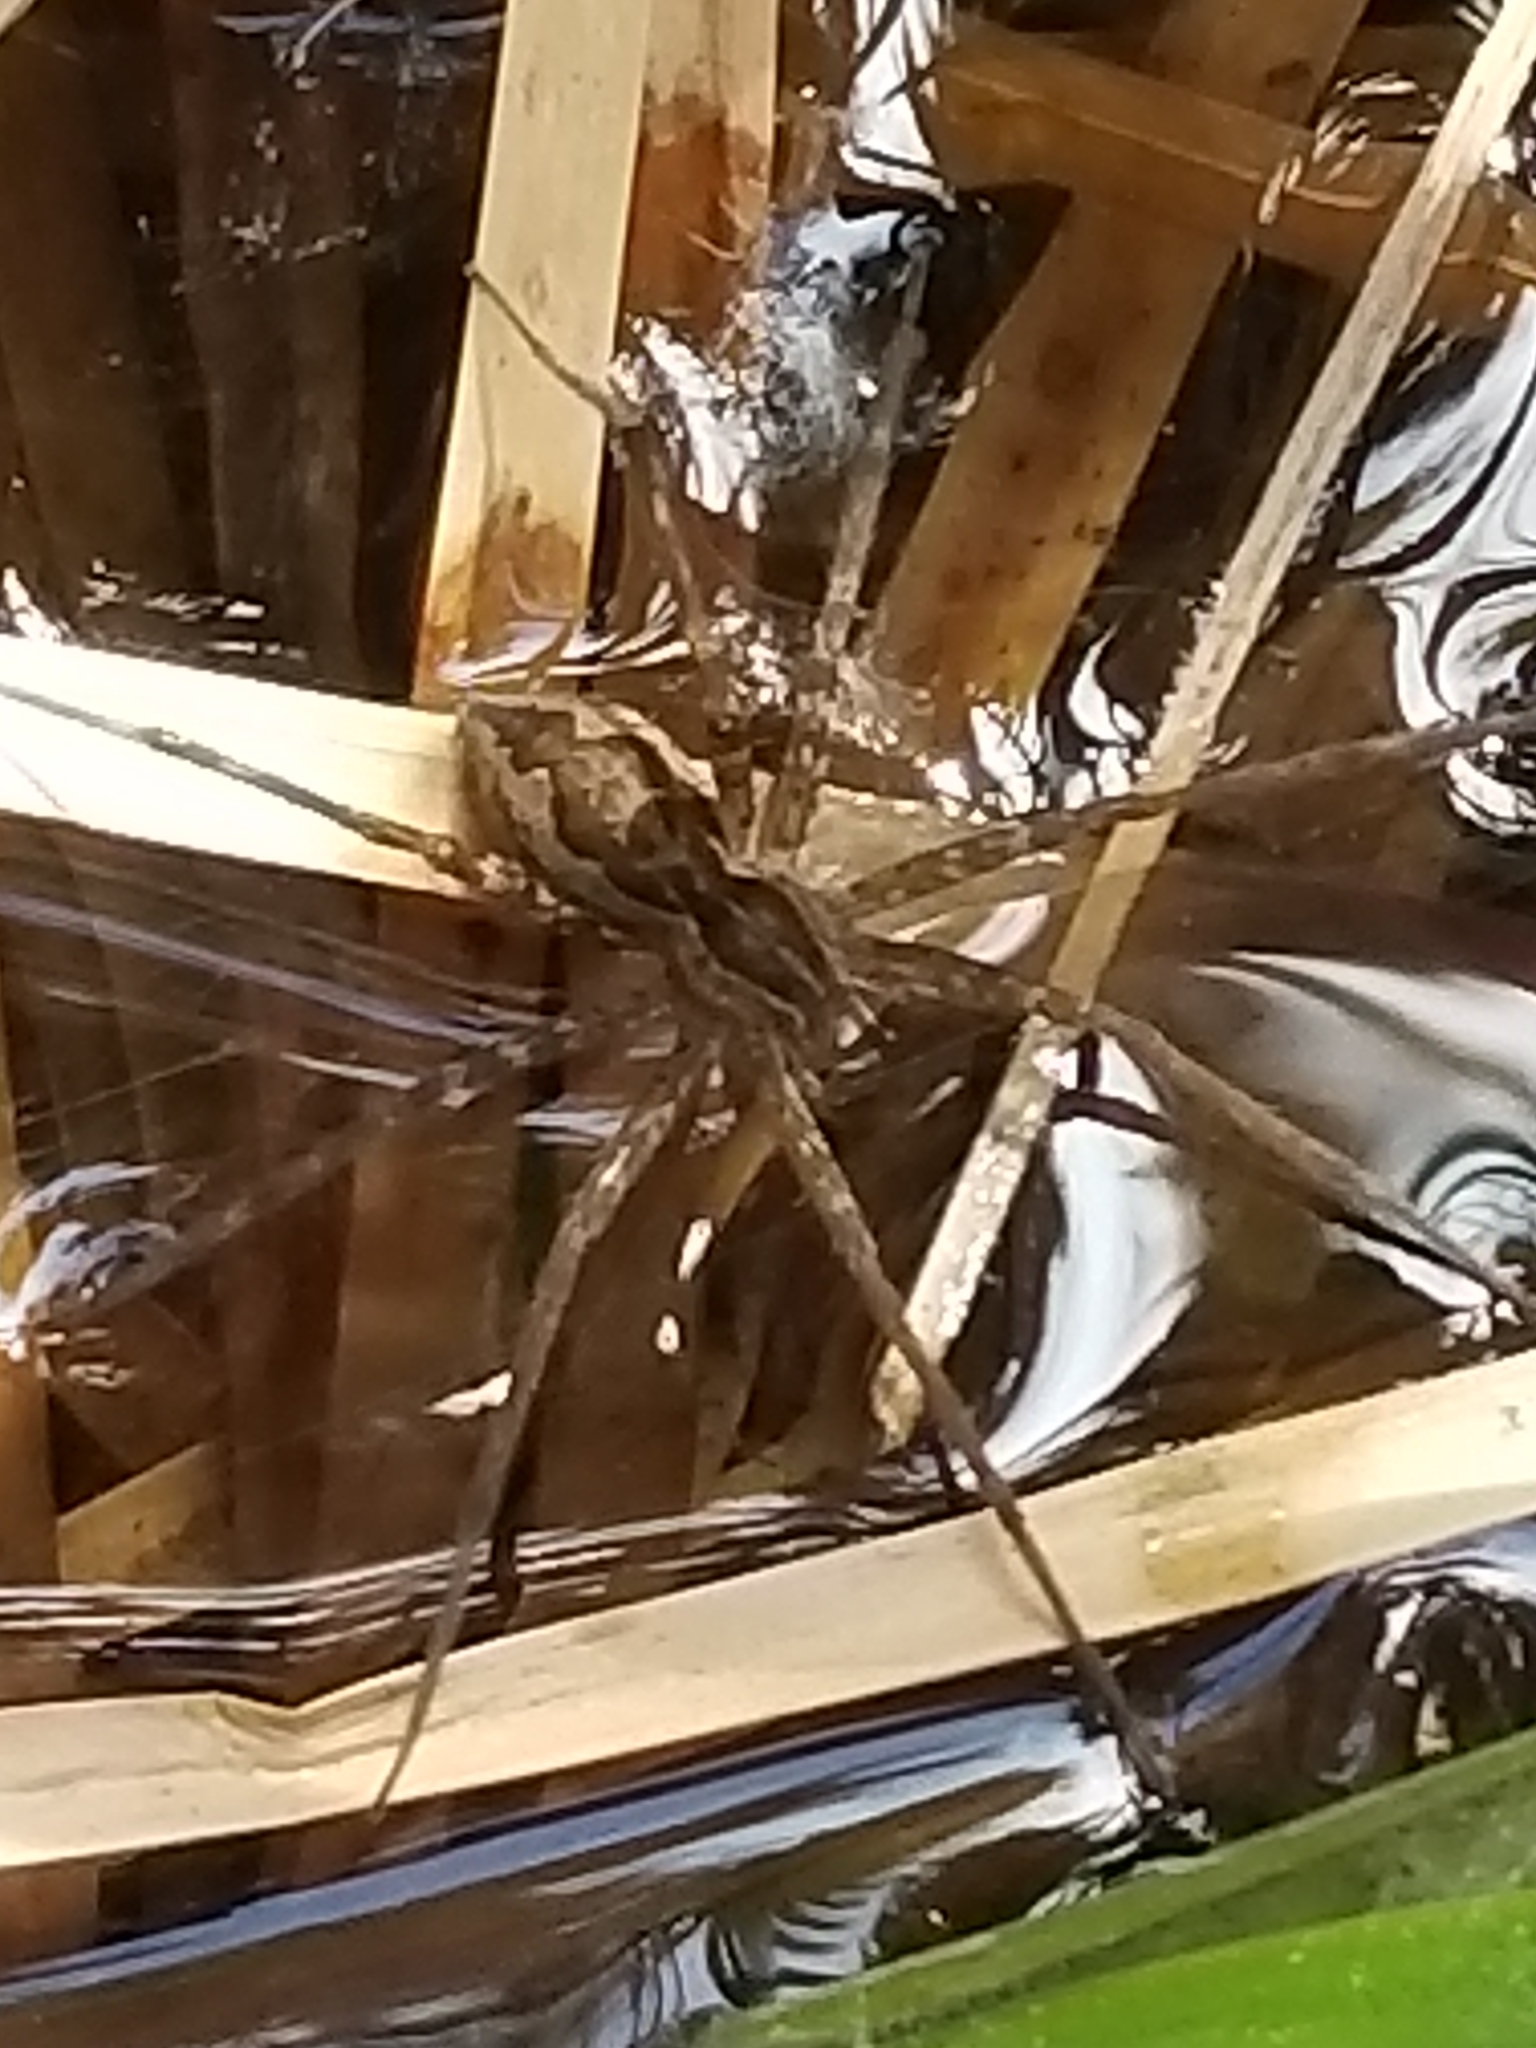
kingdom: Animalia
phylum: Arthropoda
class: Arachnida
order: Araneae
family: Pisauridae
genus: Tinus
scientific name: Tinus peregrinus
